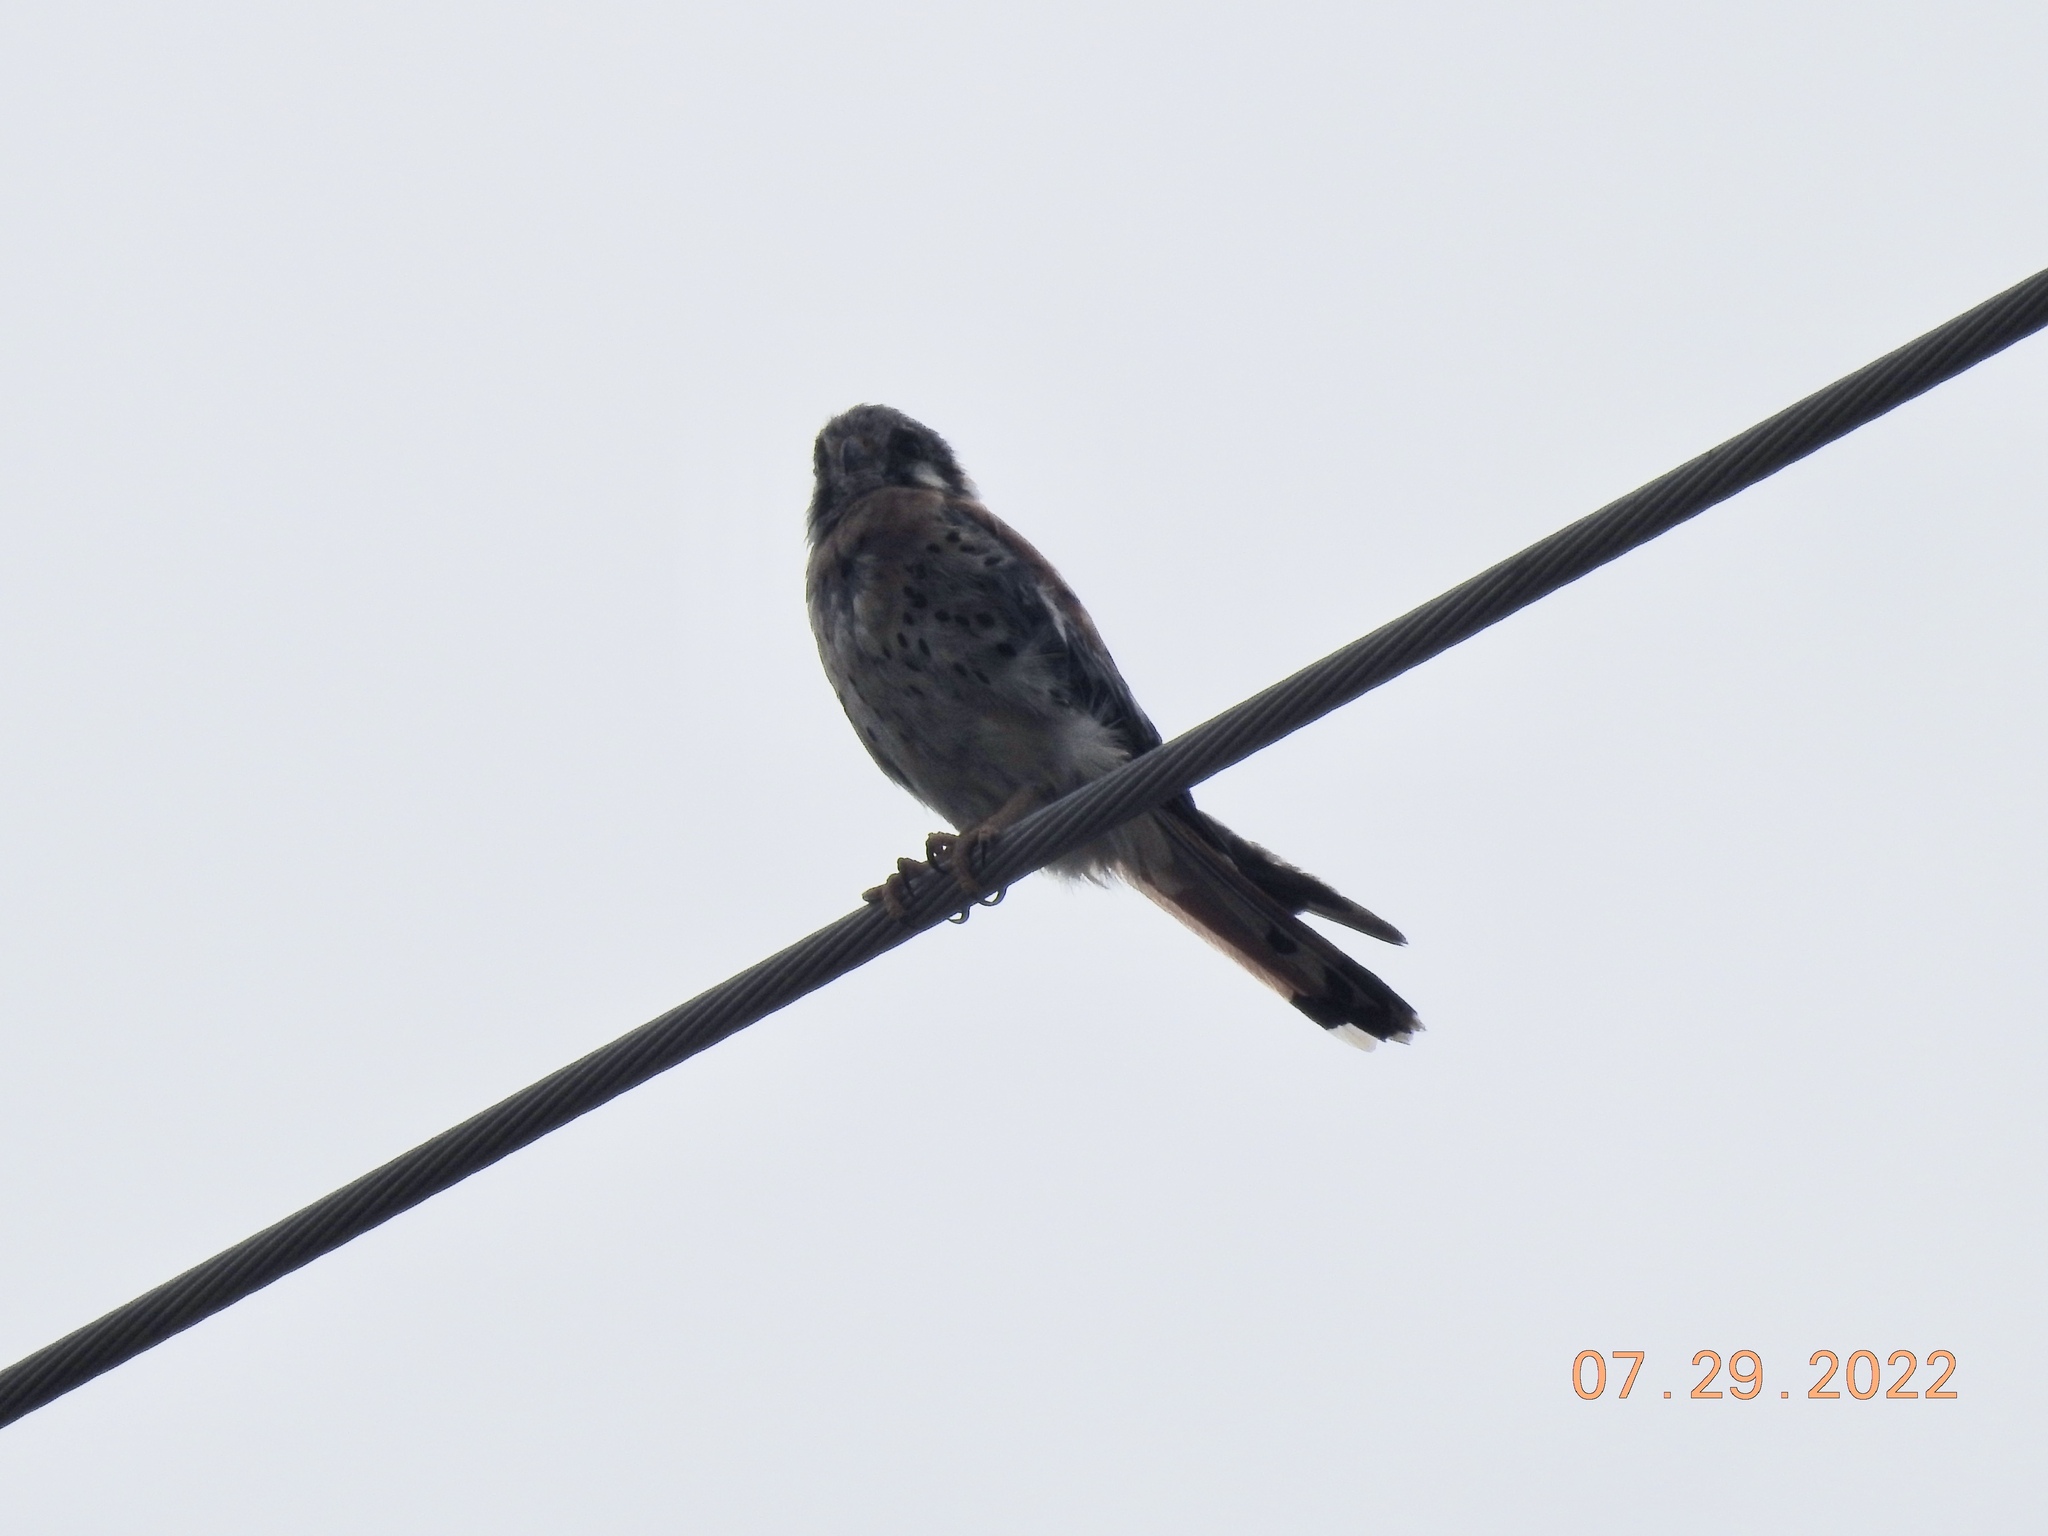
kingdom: Animalia
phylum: Chordata
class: Aves
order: Falconiformes
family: Falconidae
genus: Falco
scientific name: Falco sparverius
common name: American kestrel
